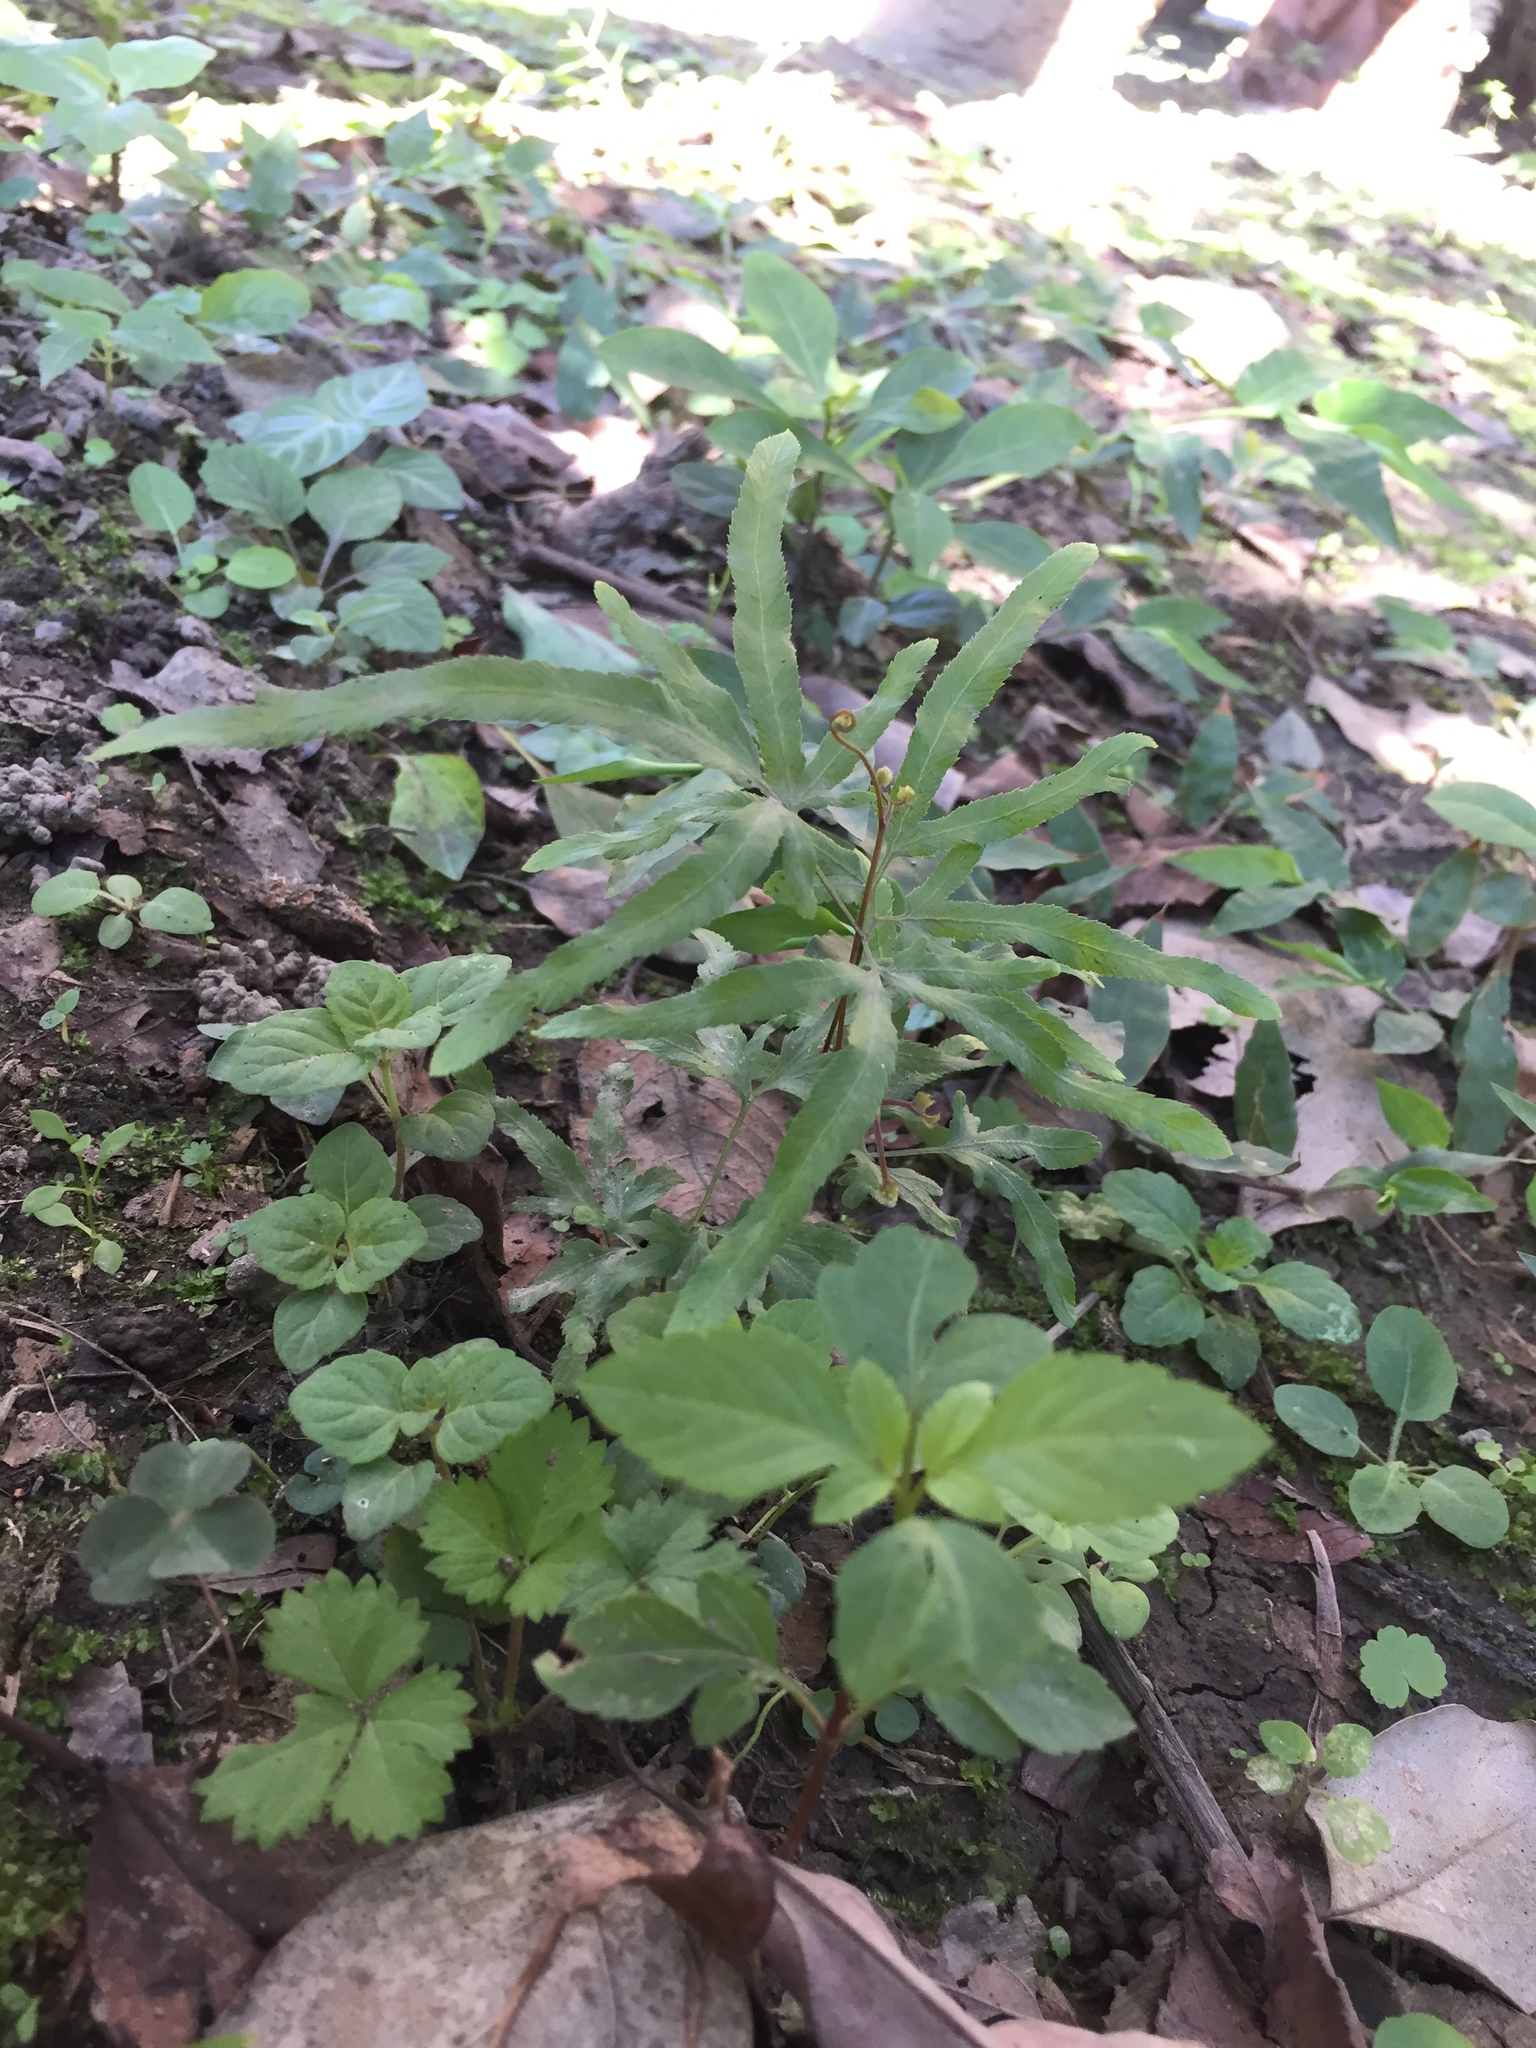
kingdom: Plantae
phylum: Tracheophyta
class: Polypodiopsida
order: Schizaeales
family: Lygodiaceae
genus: Lygodium
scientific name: Lygodium japonicum
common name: Japanese climbing fern
